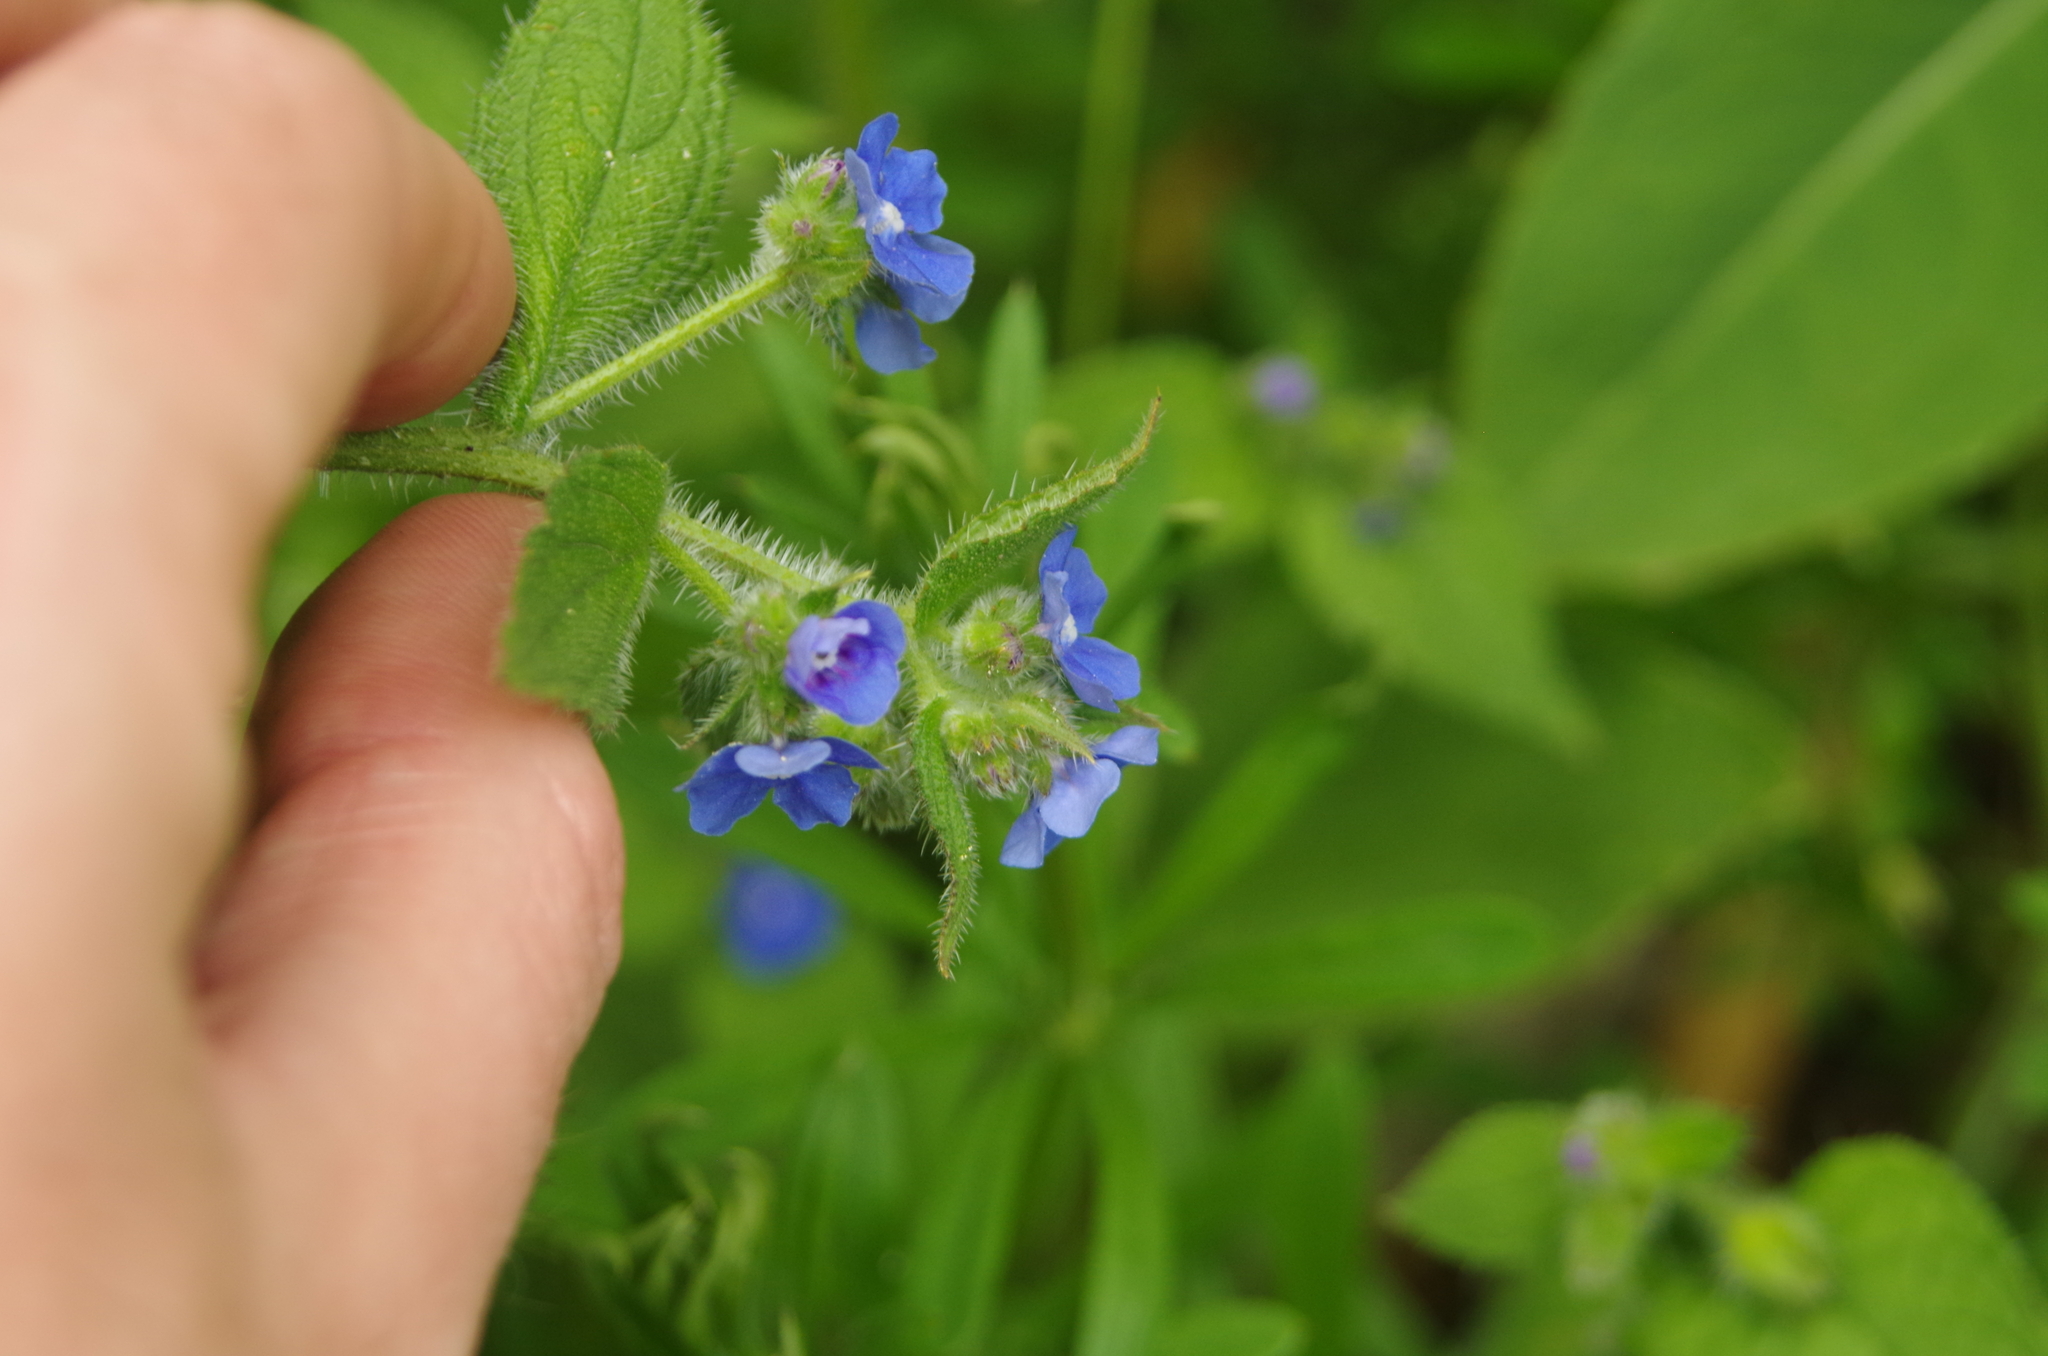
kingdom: Plantae
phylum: Tracheophyta
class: Magnoliopsida
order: Boraginales
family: Boraginaceae
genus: Pentaglottis
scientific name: Pentaglottis sempervirens
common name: Green alkanet
